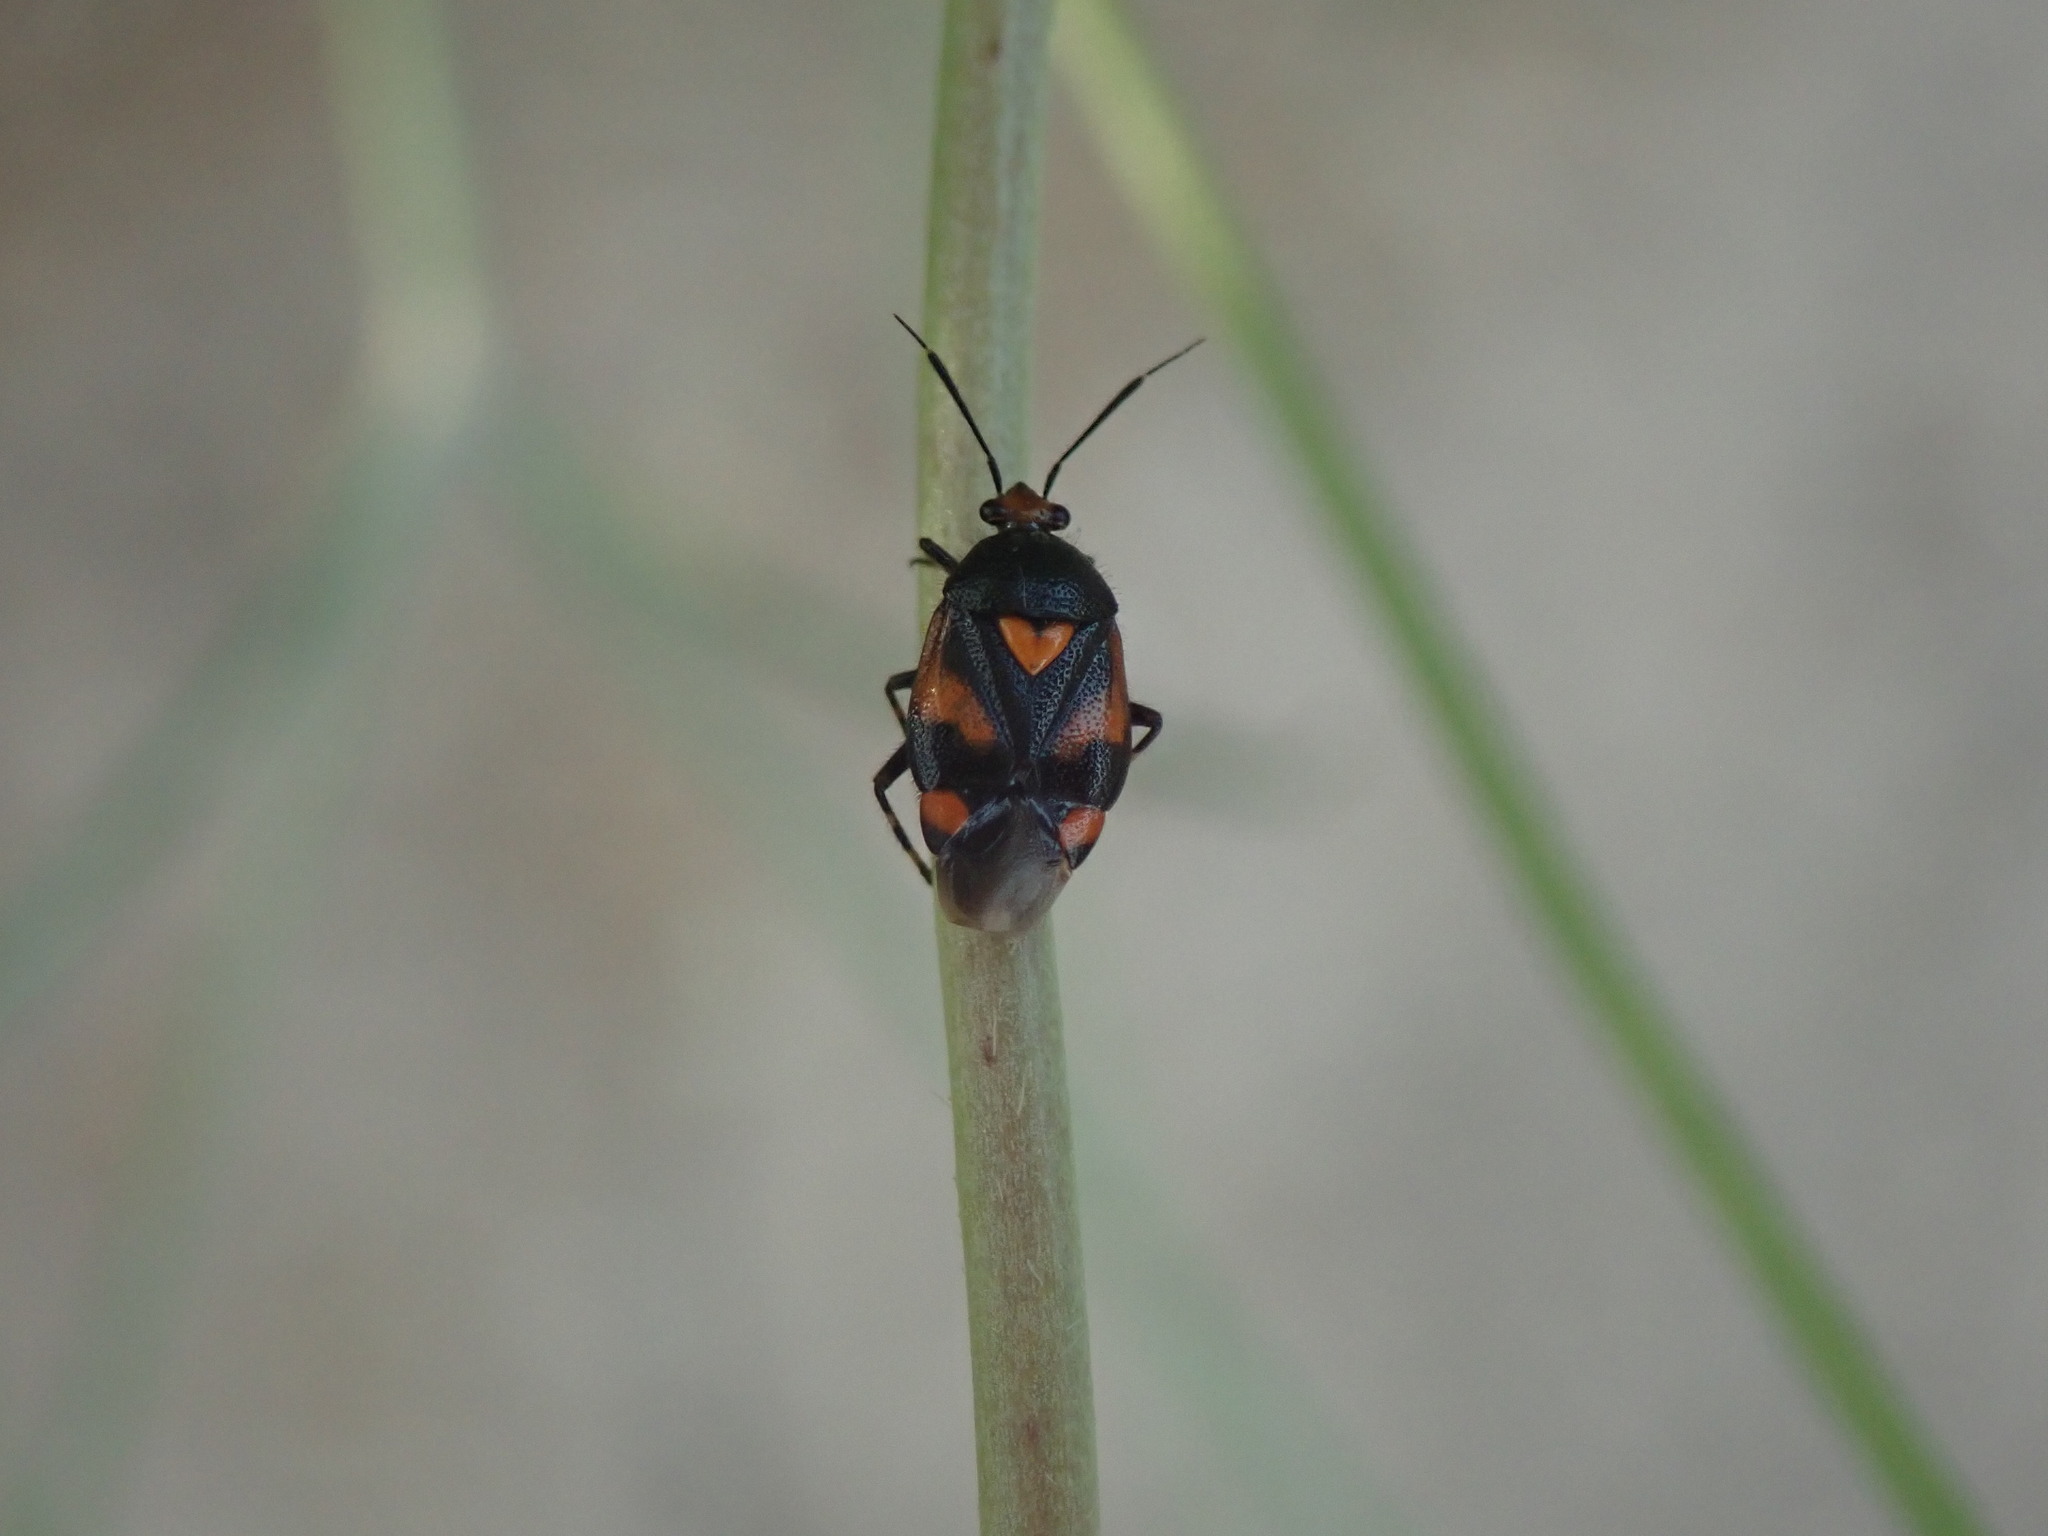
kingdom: Animalia
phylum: Arthropoda
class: Insecta
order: Hemiptera
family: Miridae
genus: Deraeocoris
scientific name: Deraeocoris schach
